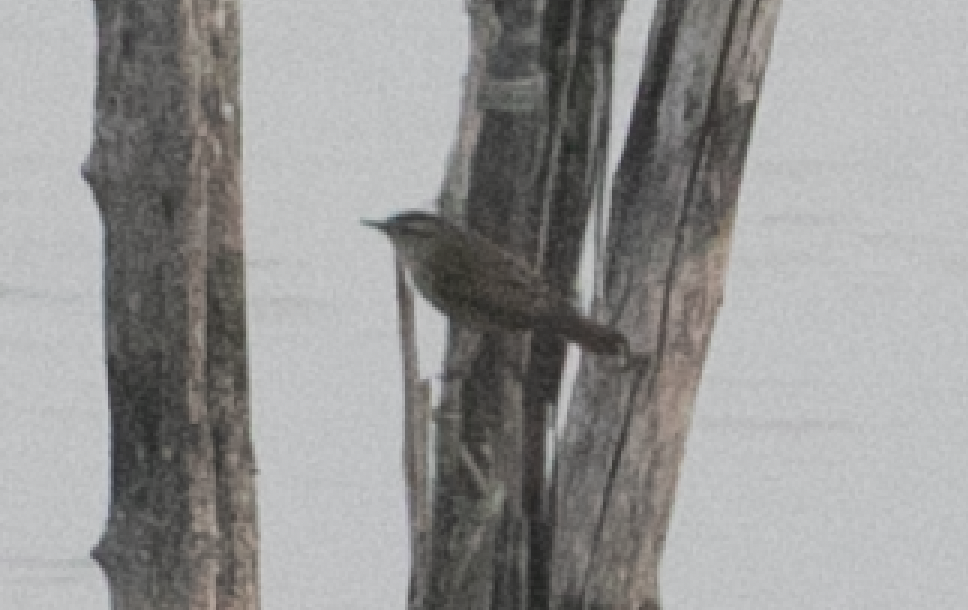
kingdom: Animalia
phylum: Chordata
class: Aves
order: Passeriformes
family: Acrocephalidae
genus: Acrocephalus
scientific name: Acrocephalus schoenobaenus
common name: Sedge warbler
